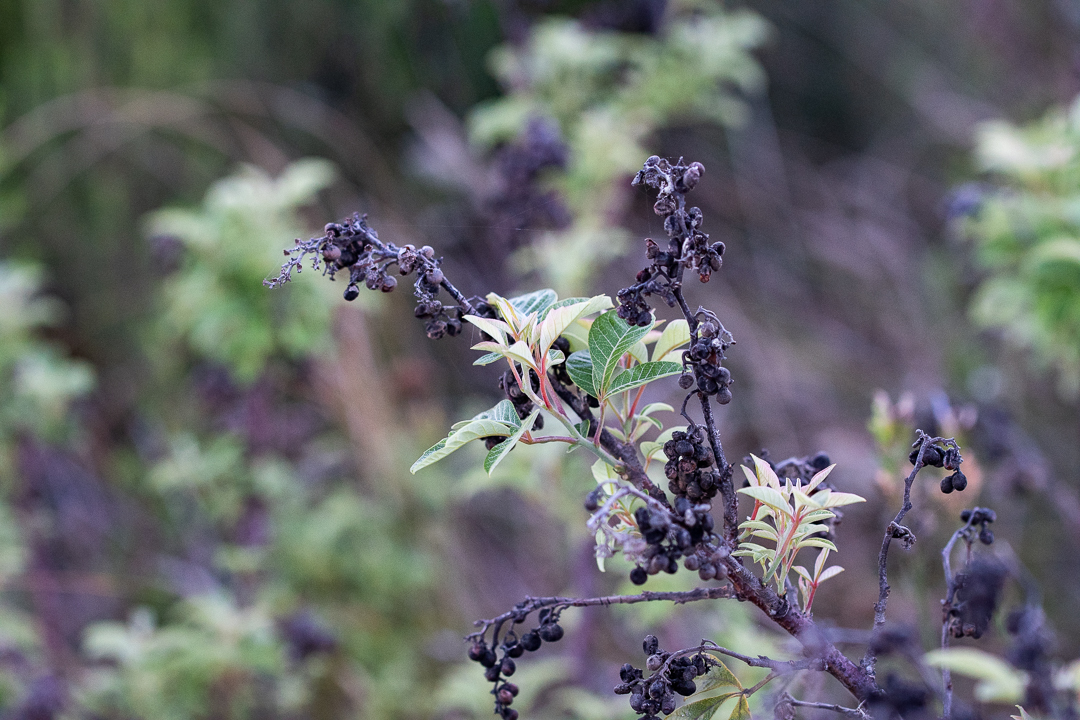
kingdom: Plantae
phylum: Tracheophyta
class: Magnoliopsida
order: Sapindales
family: Anacardiaceae
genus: Searsia
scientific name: Searsia tomentosa
